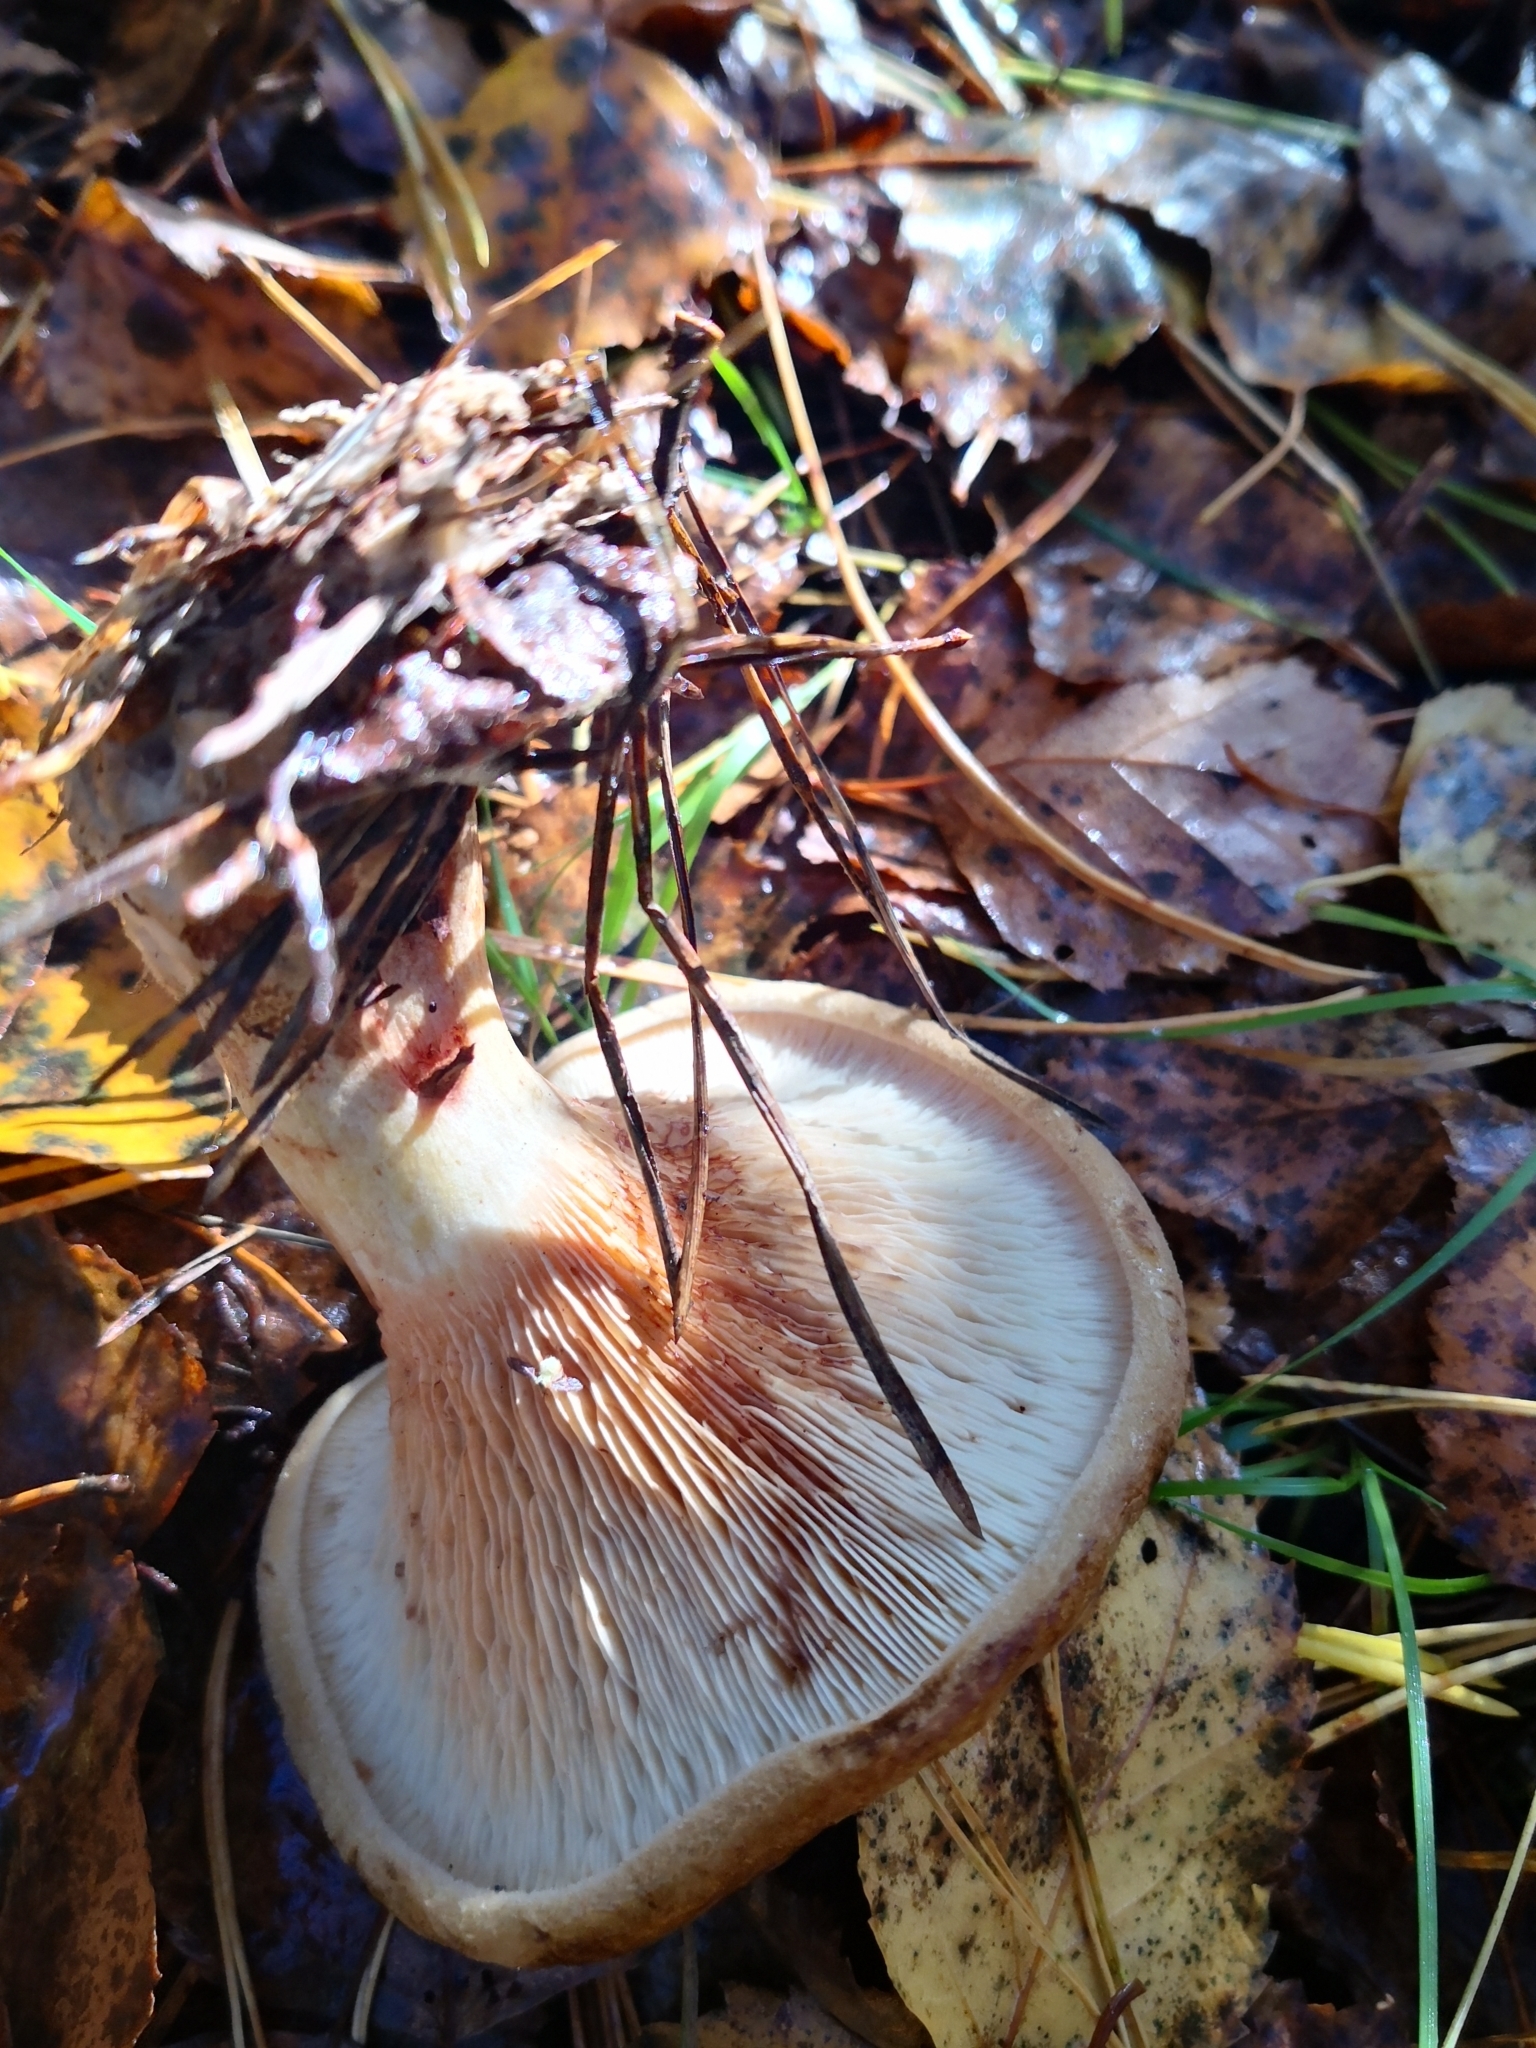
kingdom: Fungi
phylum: Basidiomycota
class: Agaricomycetes
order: Boletales
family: Paxillaceae
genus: Paxillus
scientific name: Paxillus involutus
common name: Brown roll rim
